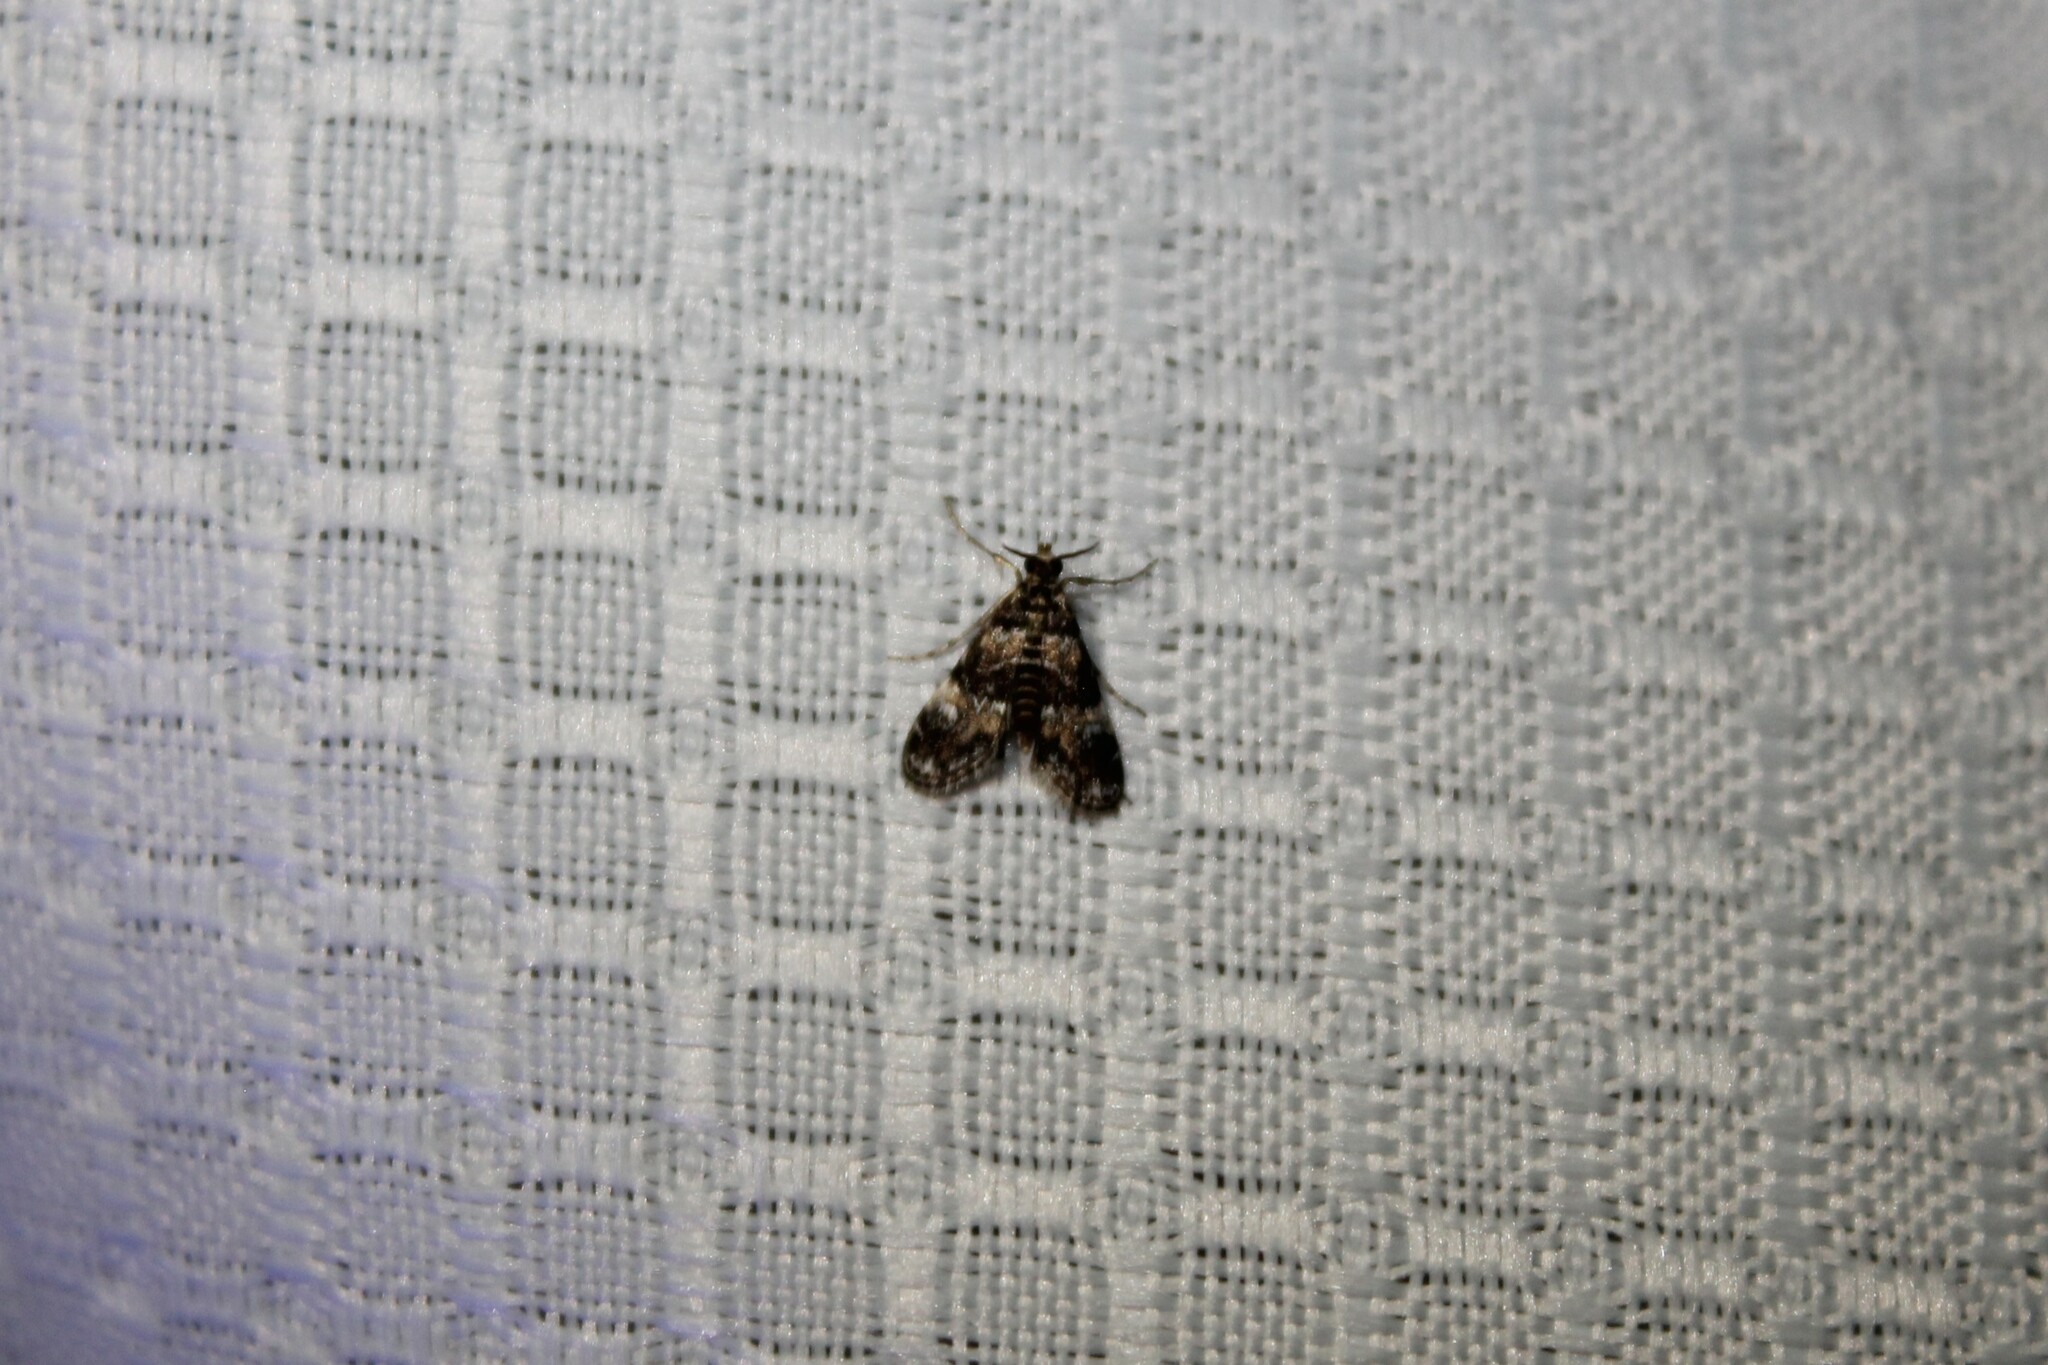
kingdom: Animalia
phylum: Arthropoda
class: Insecta
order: Lepidoptera
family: Crambidae
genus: Elophila
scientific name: Elophila obliteralis
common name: Waterlily leafcutter moth
